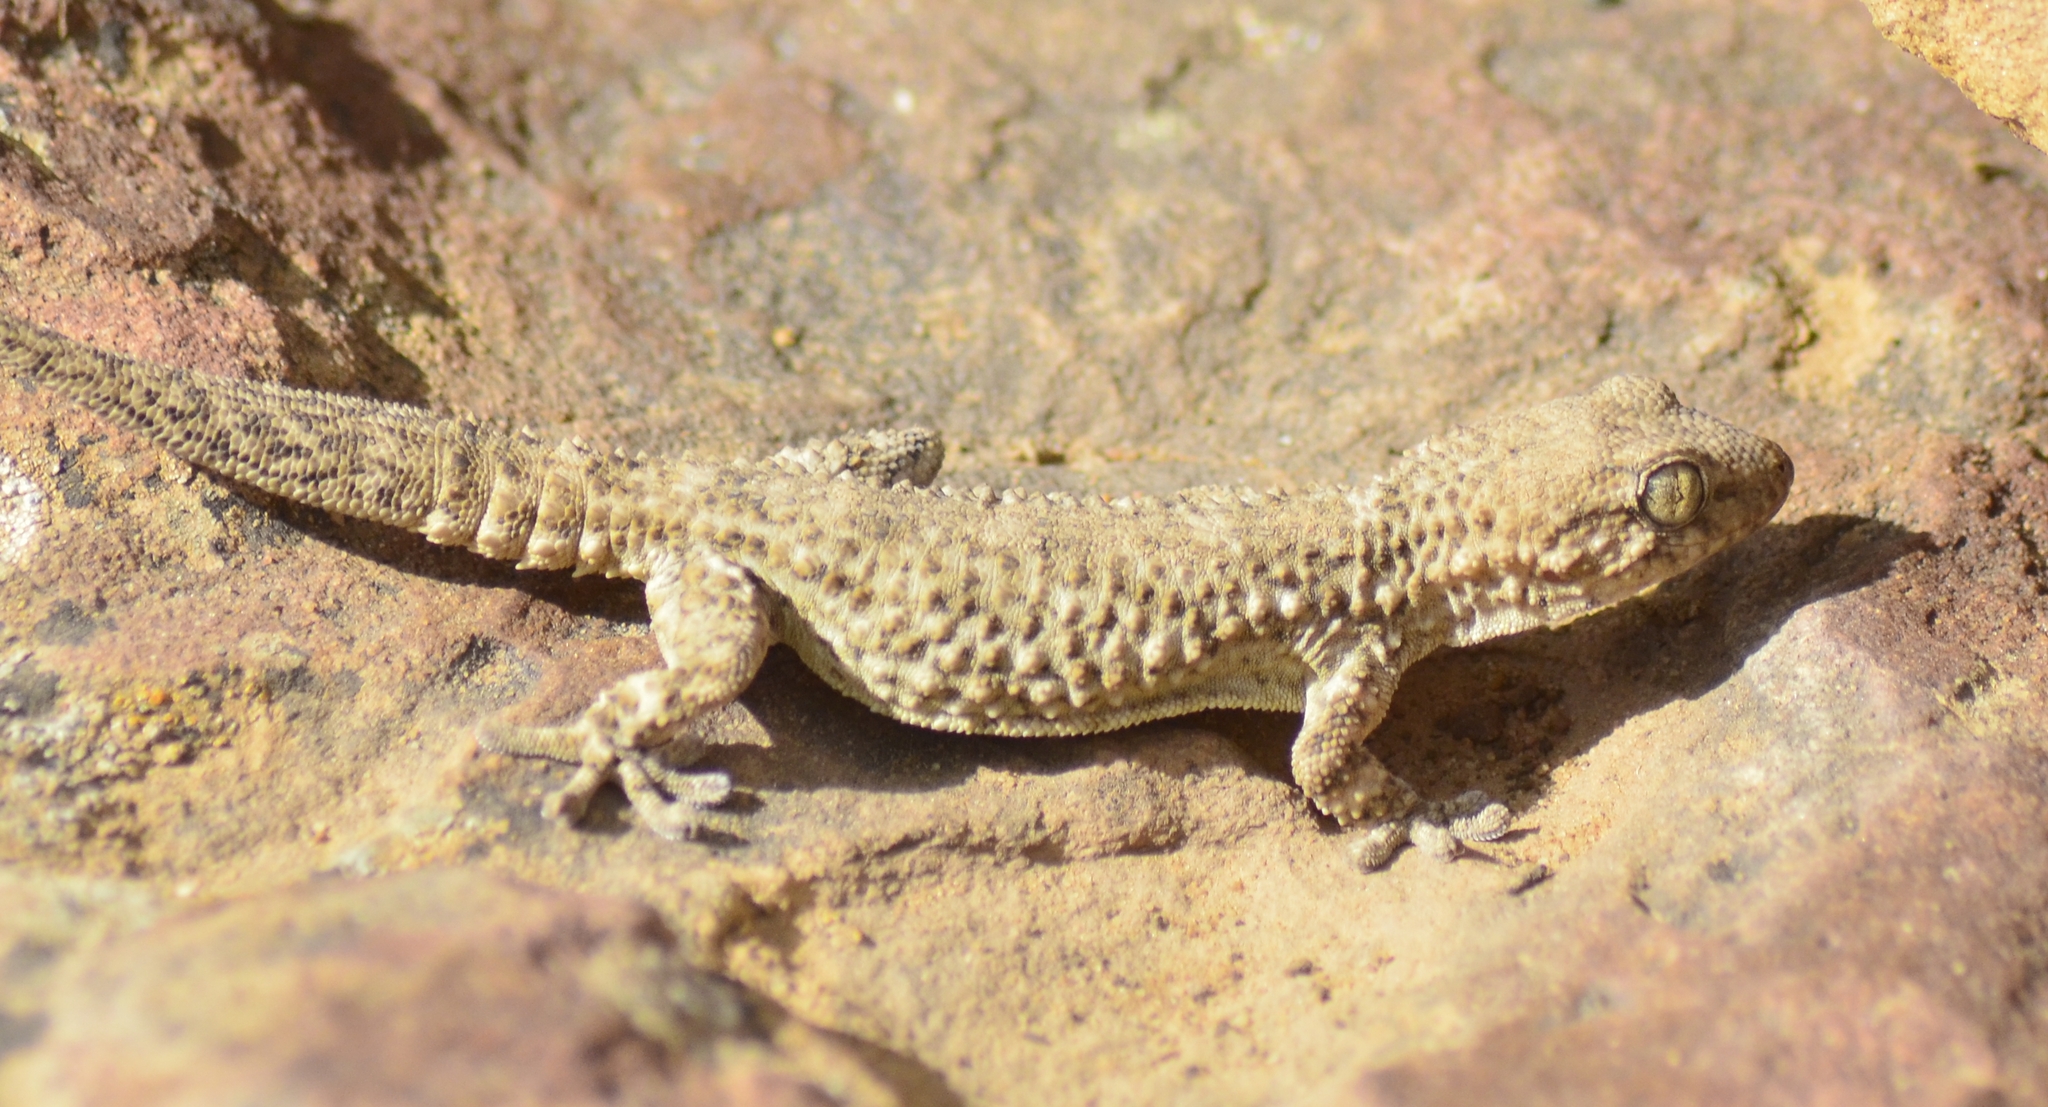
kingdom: Animalia
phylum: Chordata
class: Squamata
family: Phyllodactylidae
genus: Tarentola
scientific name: Tarentola mauritanica
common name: Moorish gecko
